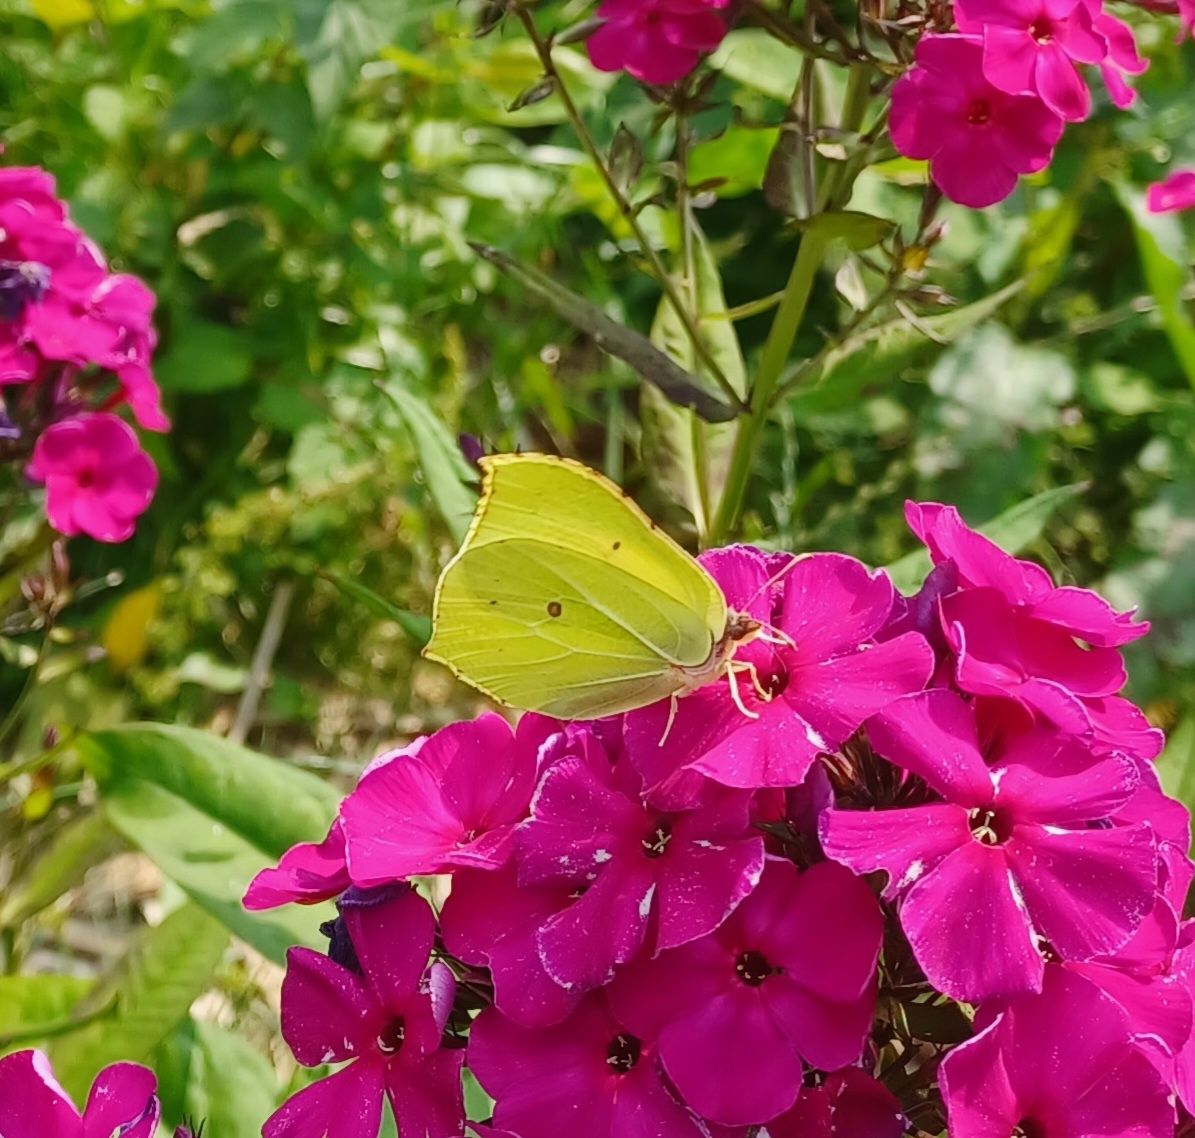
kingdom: Animalia
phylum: Arthropoda
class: Insecta
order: Lepidoptera
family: Pieridae
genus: Gonepteryx
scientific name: Gonepteryx rhamni
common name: Brimstone
